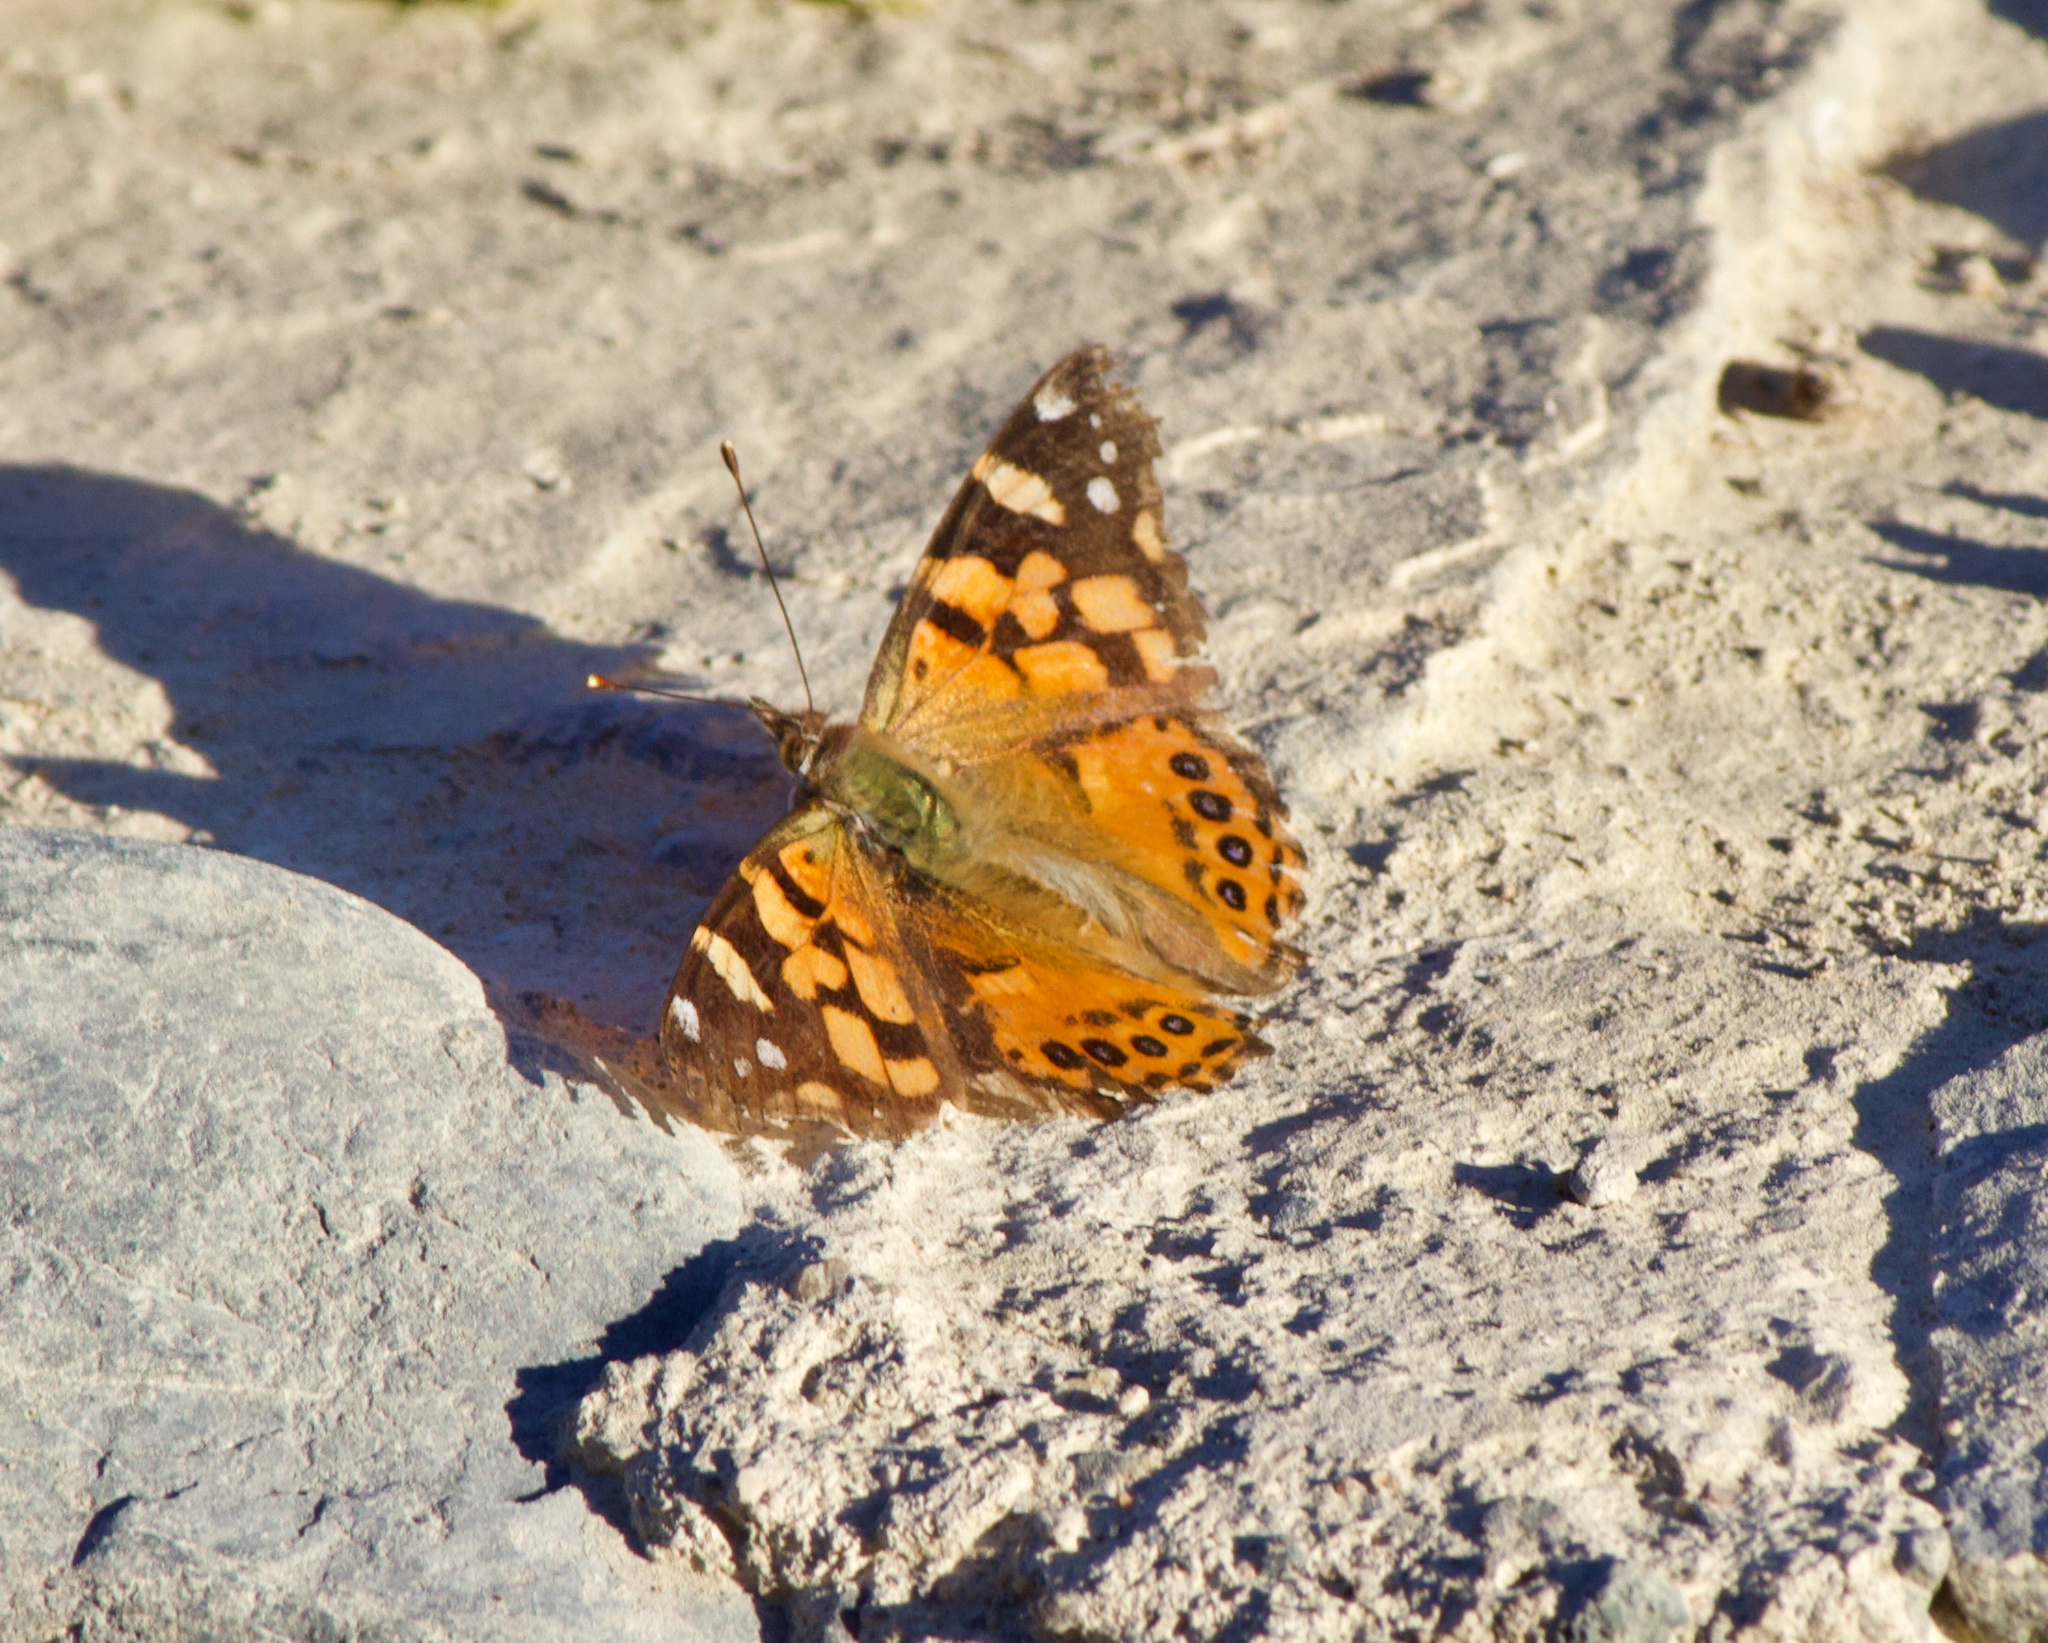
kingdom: Animalia
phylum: Arthropoda
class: Insecta
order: Lepidoptera
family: Nymphalidae
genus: Vanessa
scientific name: Vanessa carye
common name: Subtropical lady
